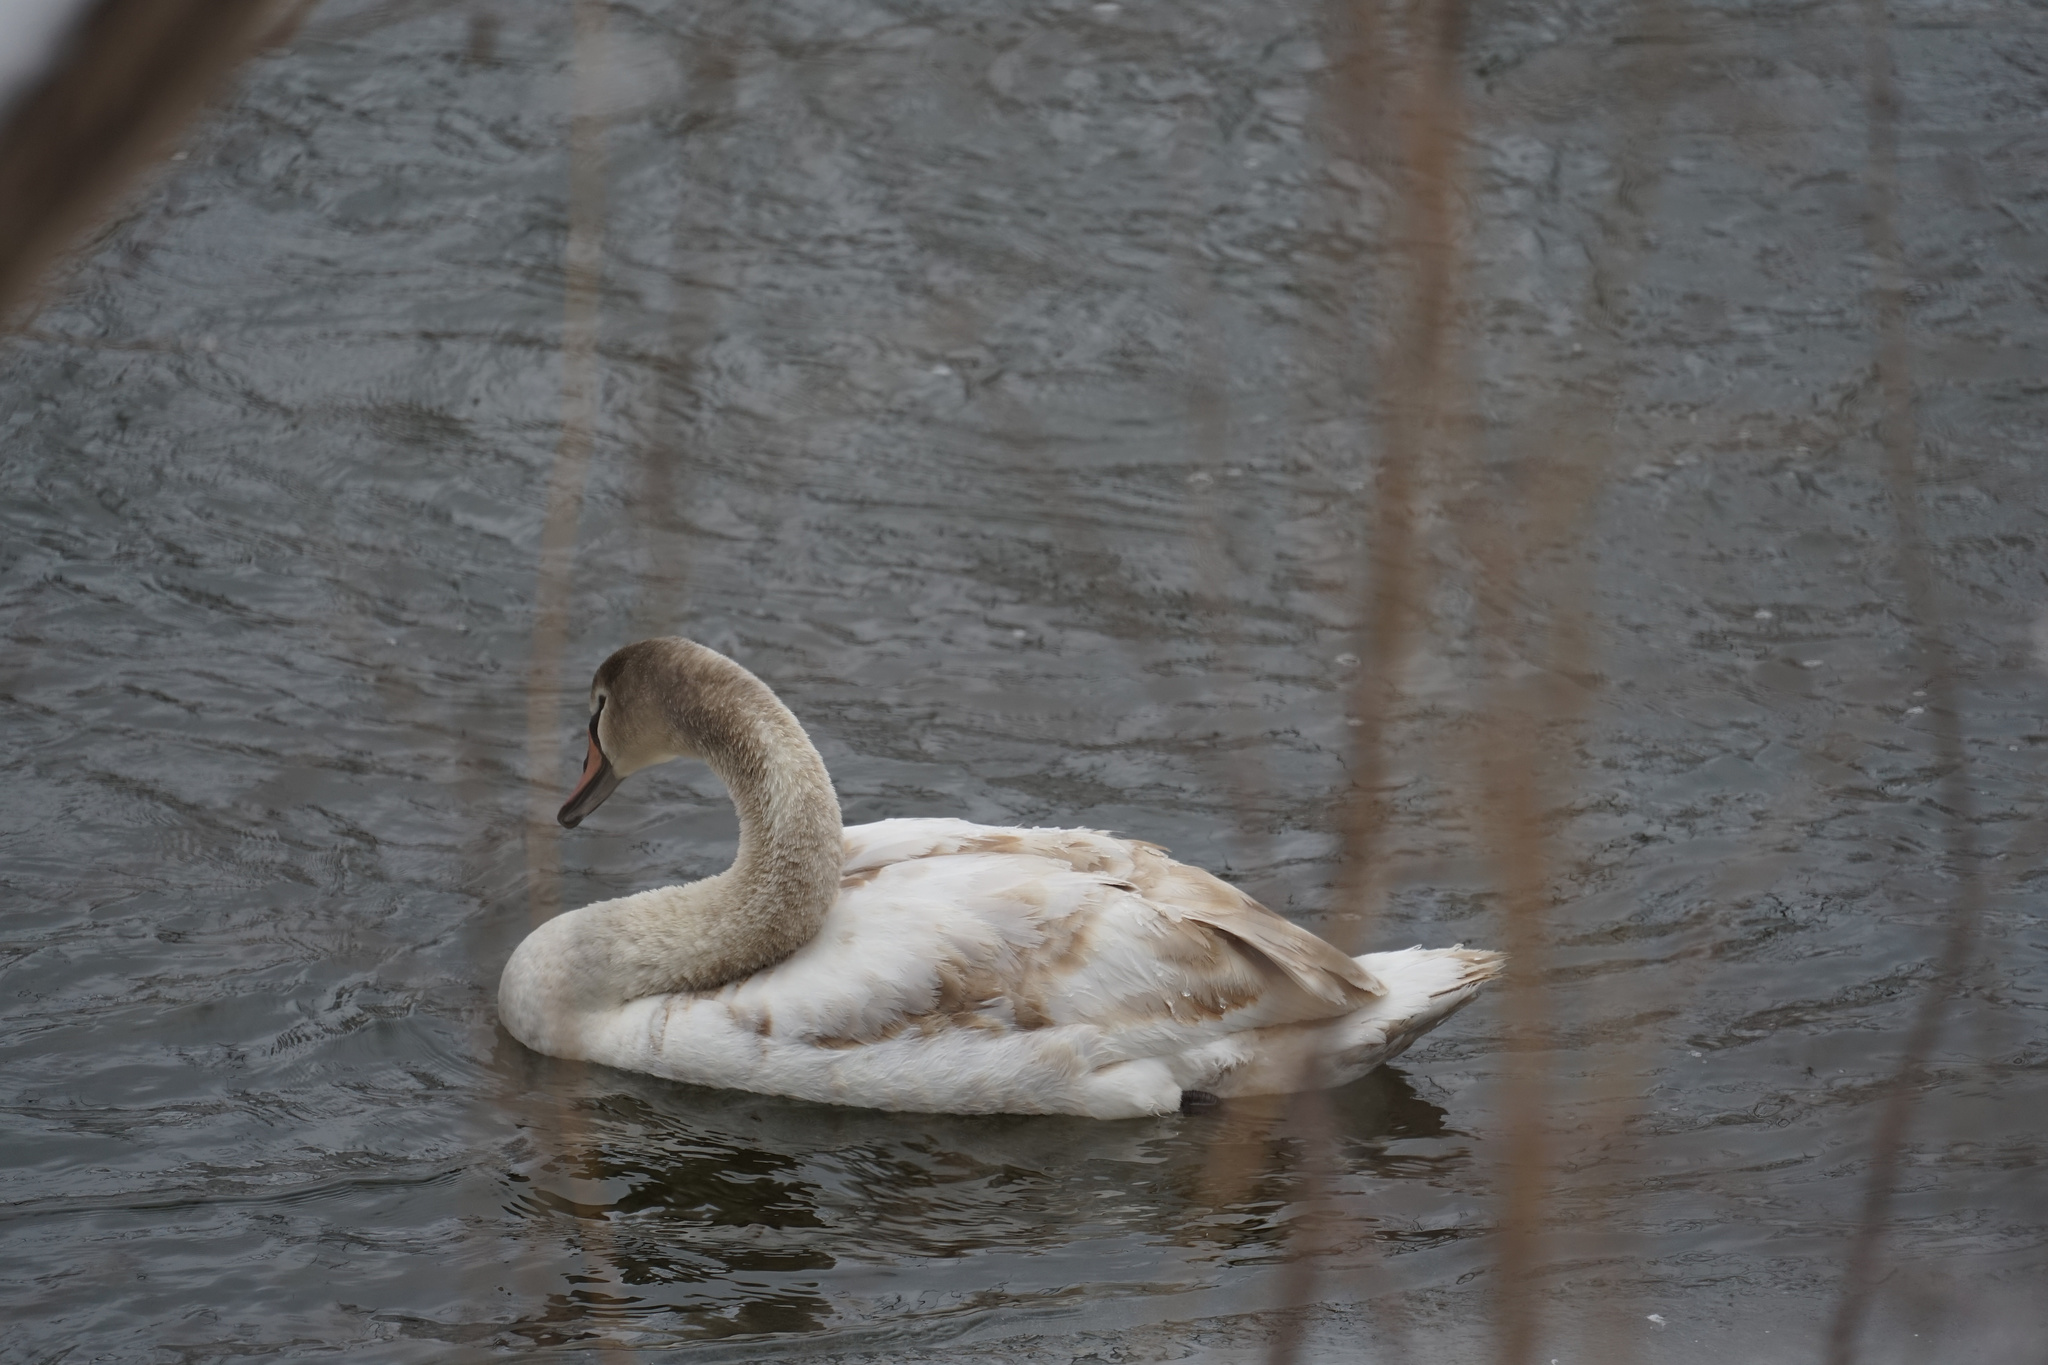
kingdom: Animalia
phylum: Chordata
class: Aves
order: Anseriformes
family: Anatidae
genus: Cygnus
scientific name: Cygnus olor
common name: Mute swan
